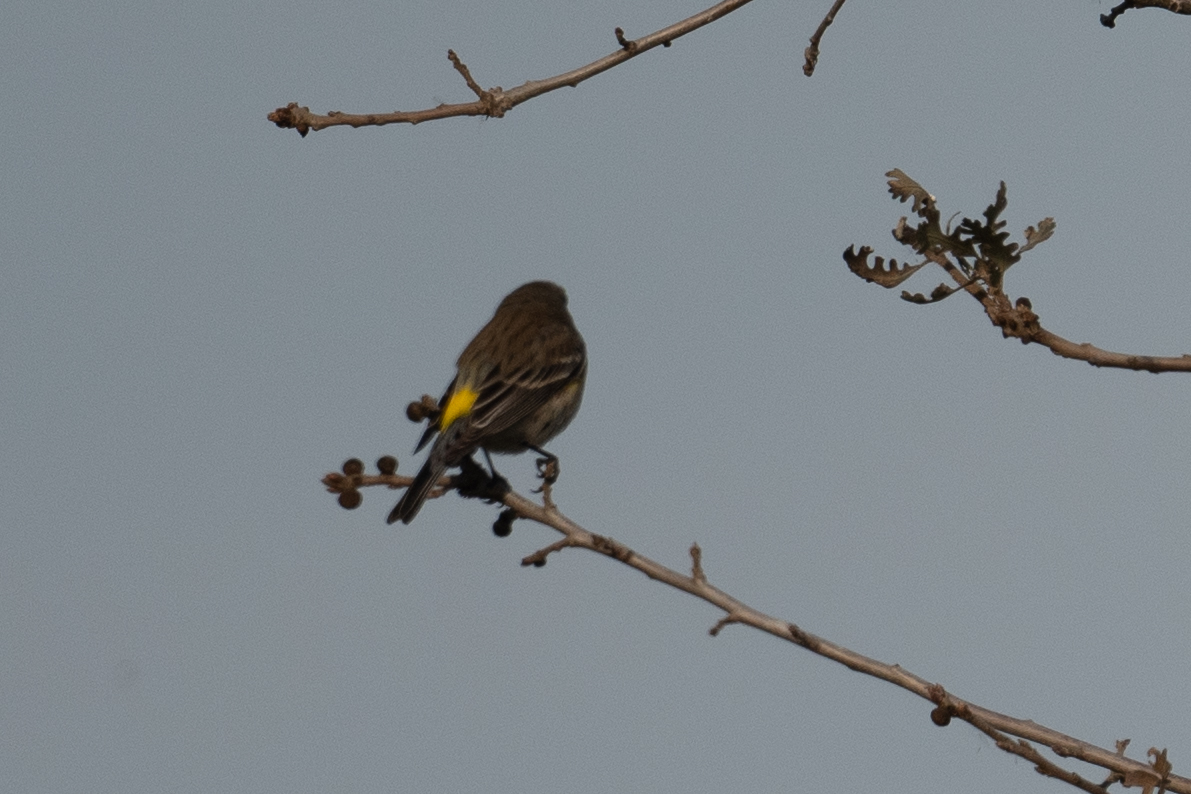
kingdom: Animalia
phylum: Chordata
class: Aves
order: Passeriformes
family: Parulidae
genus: Setophaga
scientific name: Setophaga coronata
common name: Myrtle warbler
